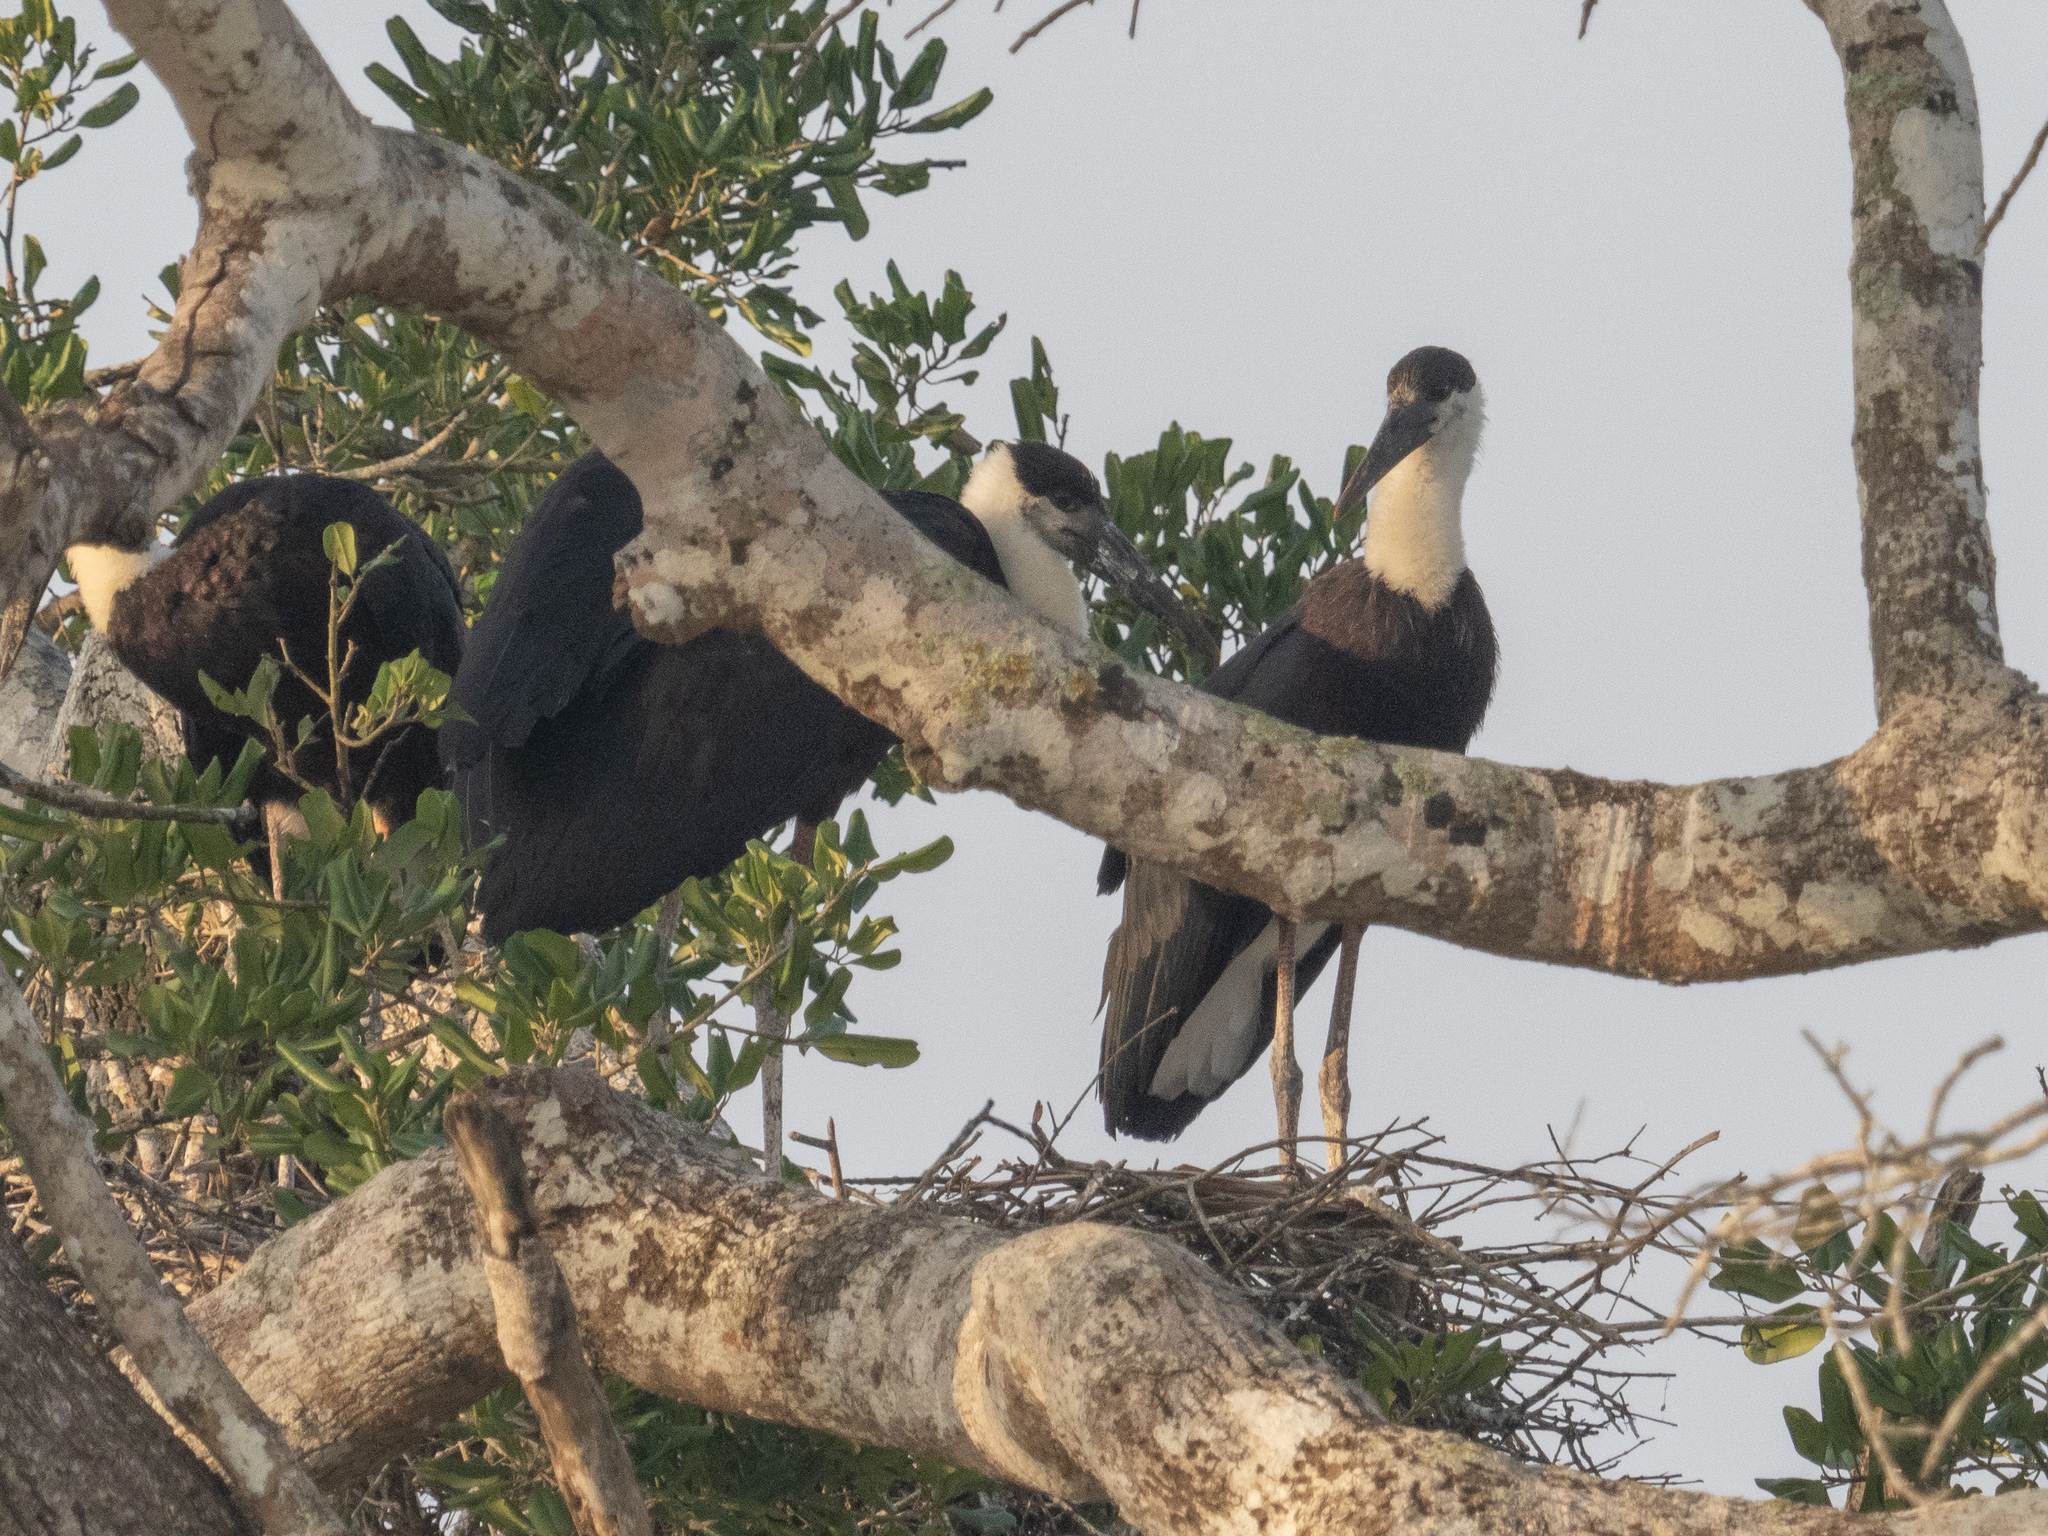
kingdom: Animalia
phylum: Chordata
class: Aves
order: Ciconiiformes
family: Ciconiidae
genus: Ciconia
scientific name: Ciconia episcopus
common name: Woolly-necked stork
